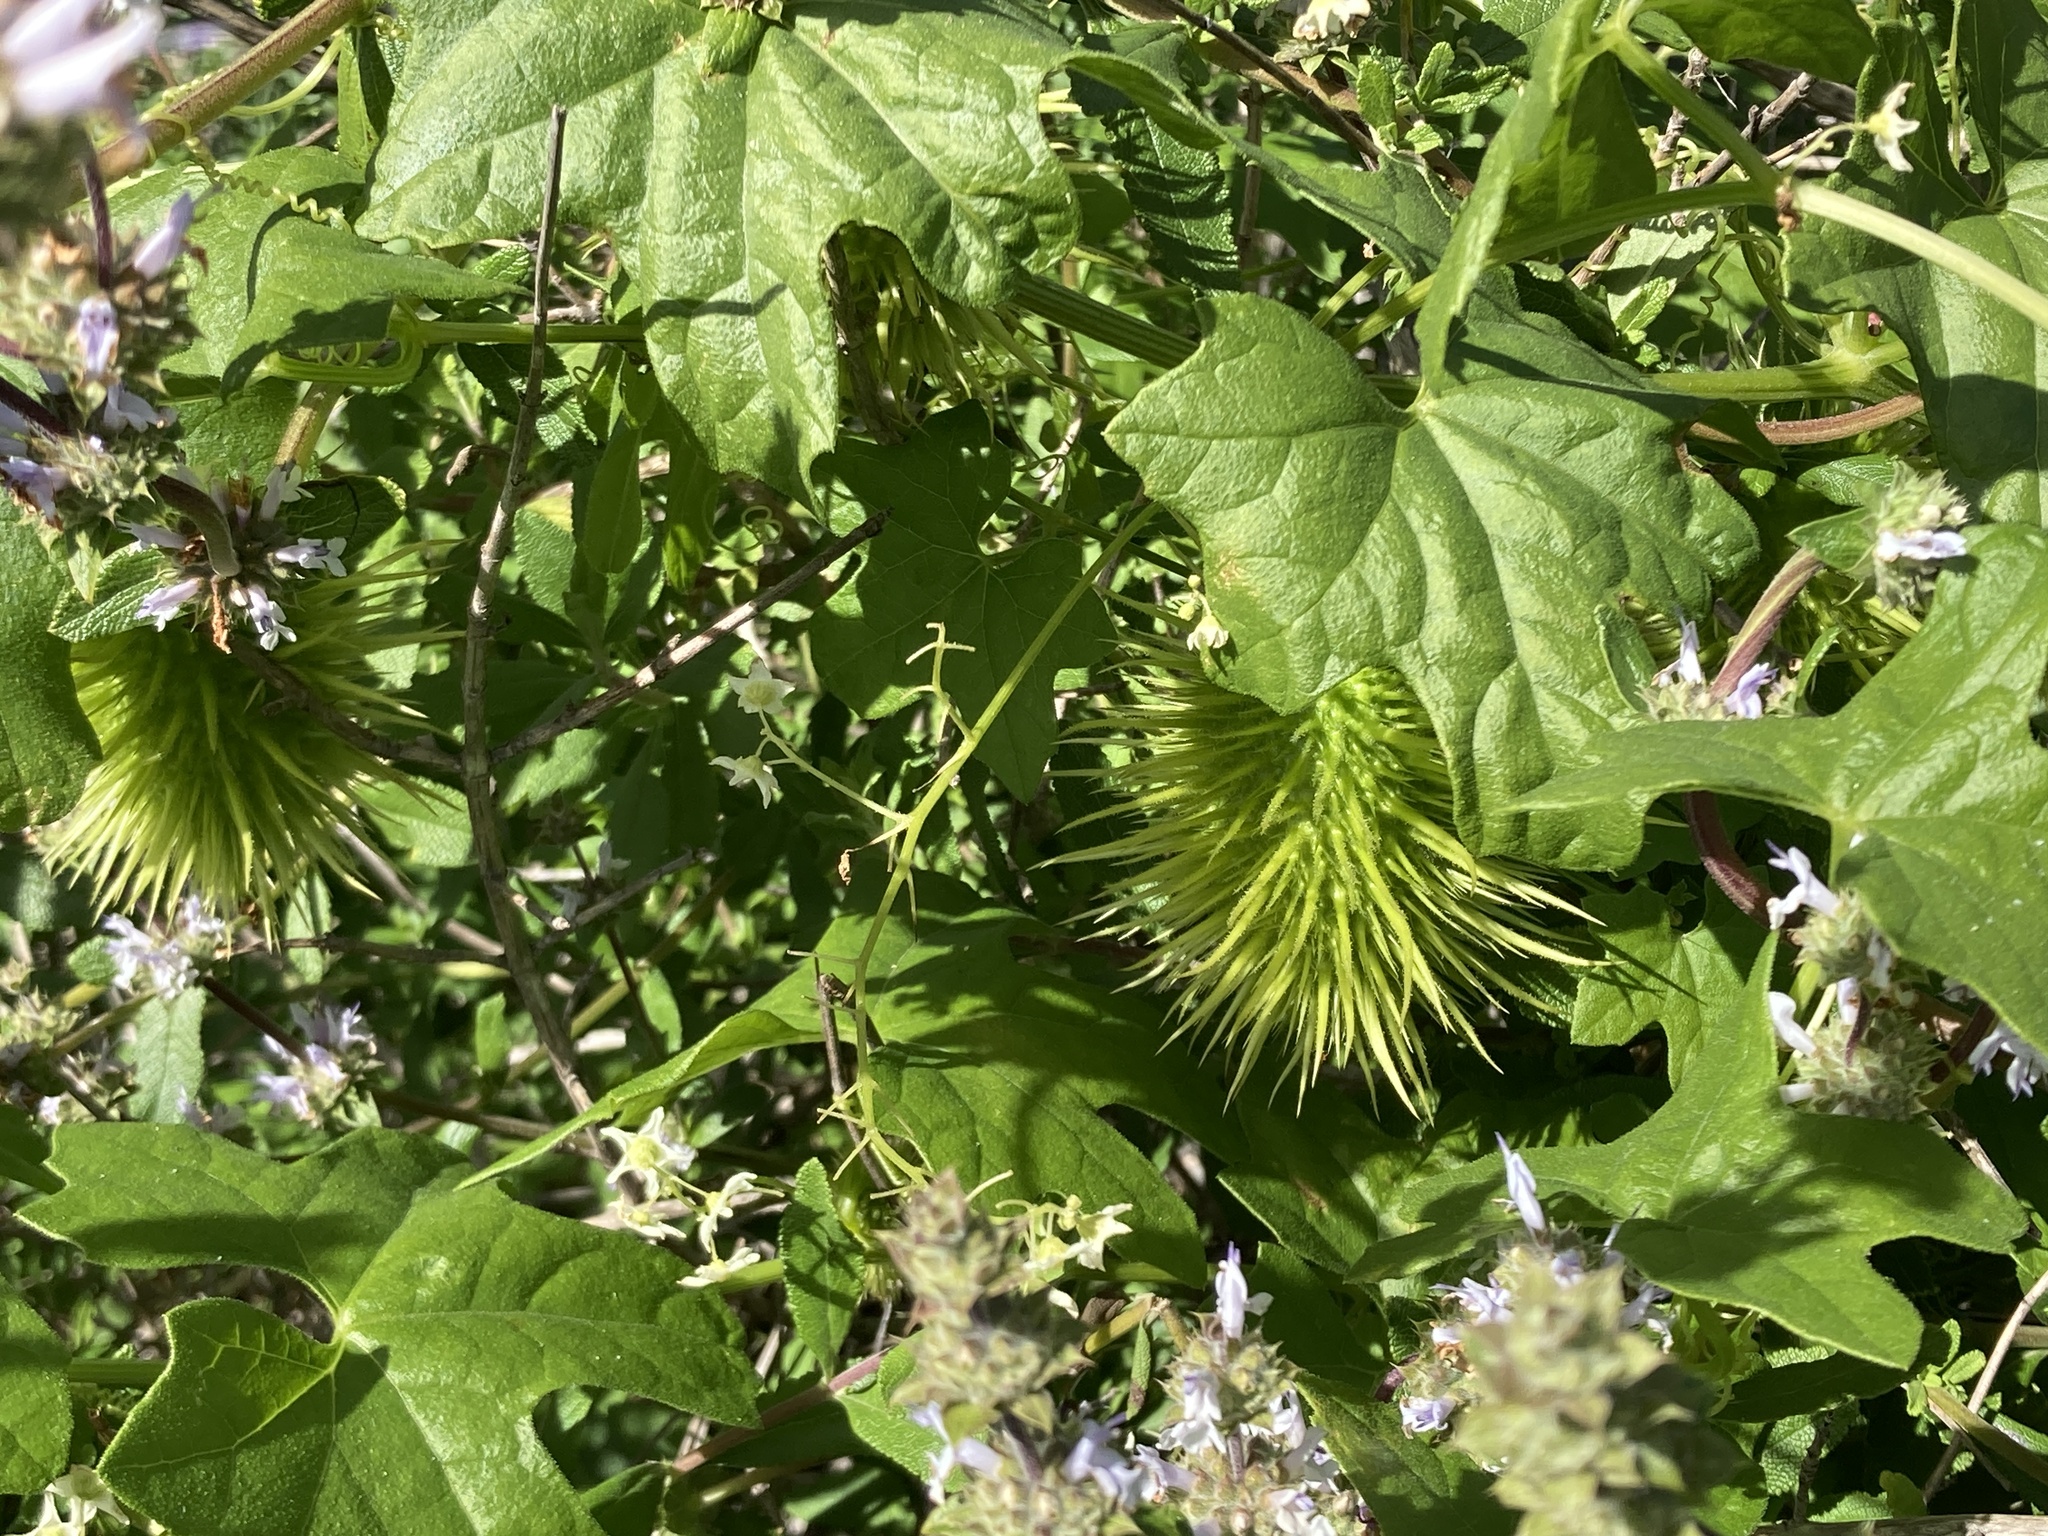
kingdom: Plantae
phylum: Tracheophyta
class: Magnoliopsida
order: Cucurbitales
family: Cucurbitaceae
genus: Marah
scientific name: Marah macrocarpa
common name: Cucamonga manroot
